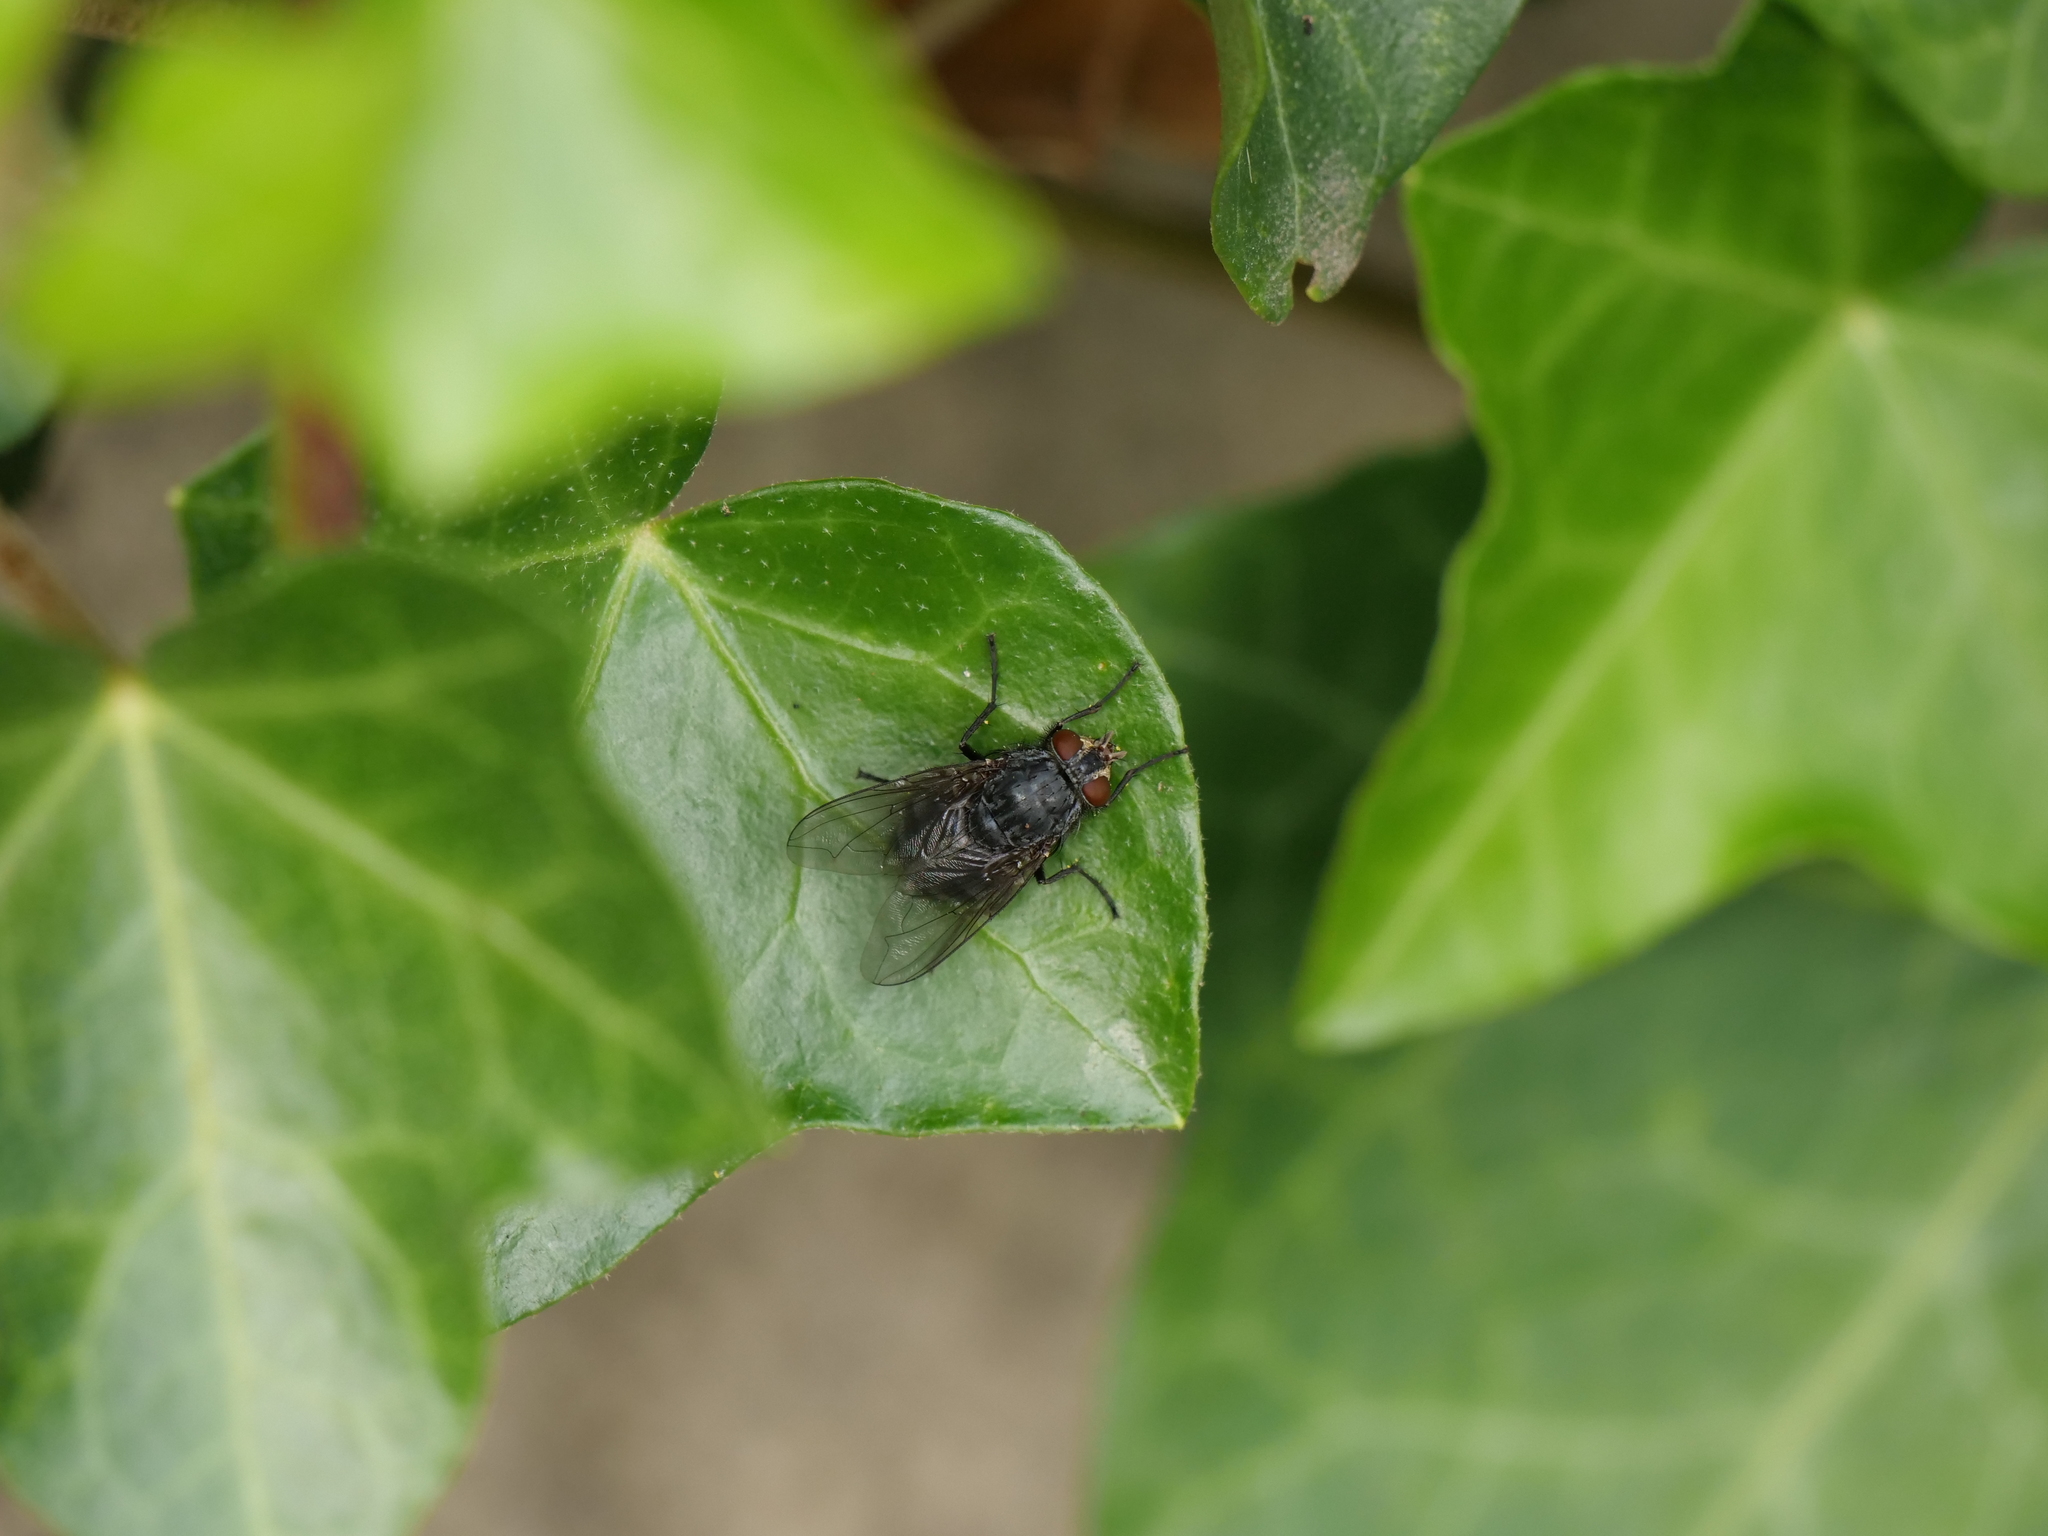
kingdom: Animalia
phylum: Arthropoda
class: Insecta
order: Diptera
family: Calliphoridae
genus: Calliphora
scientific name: Calliphora vicina
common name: Common blow flie
